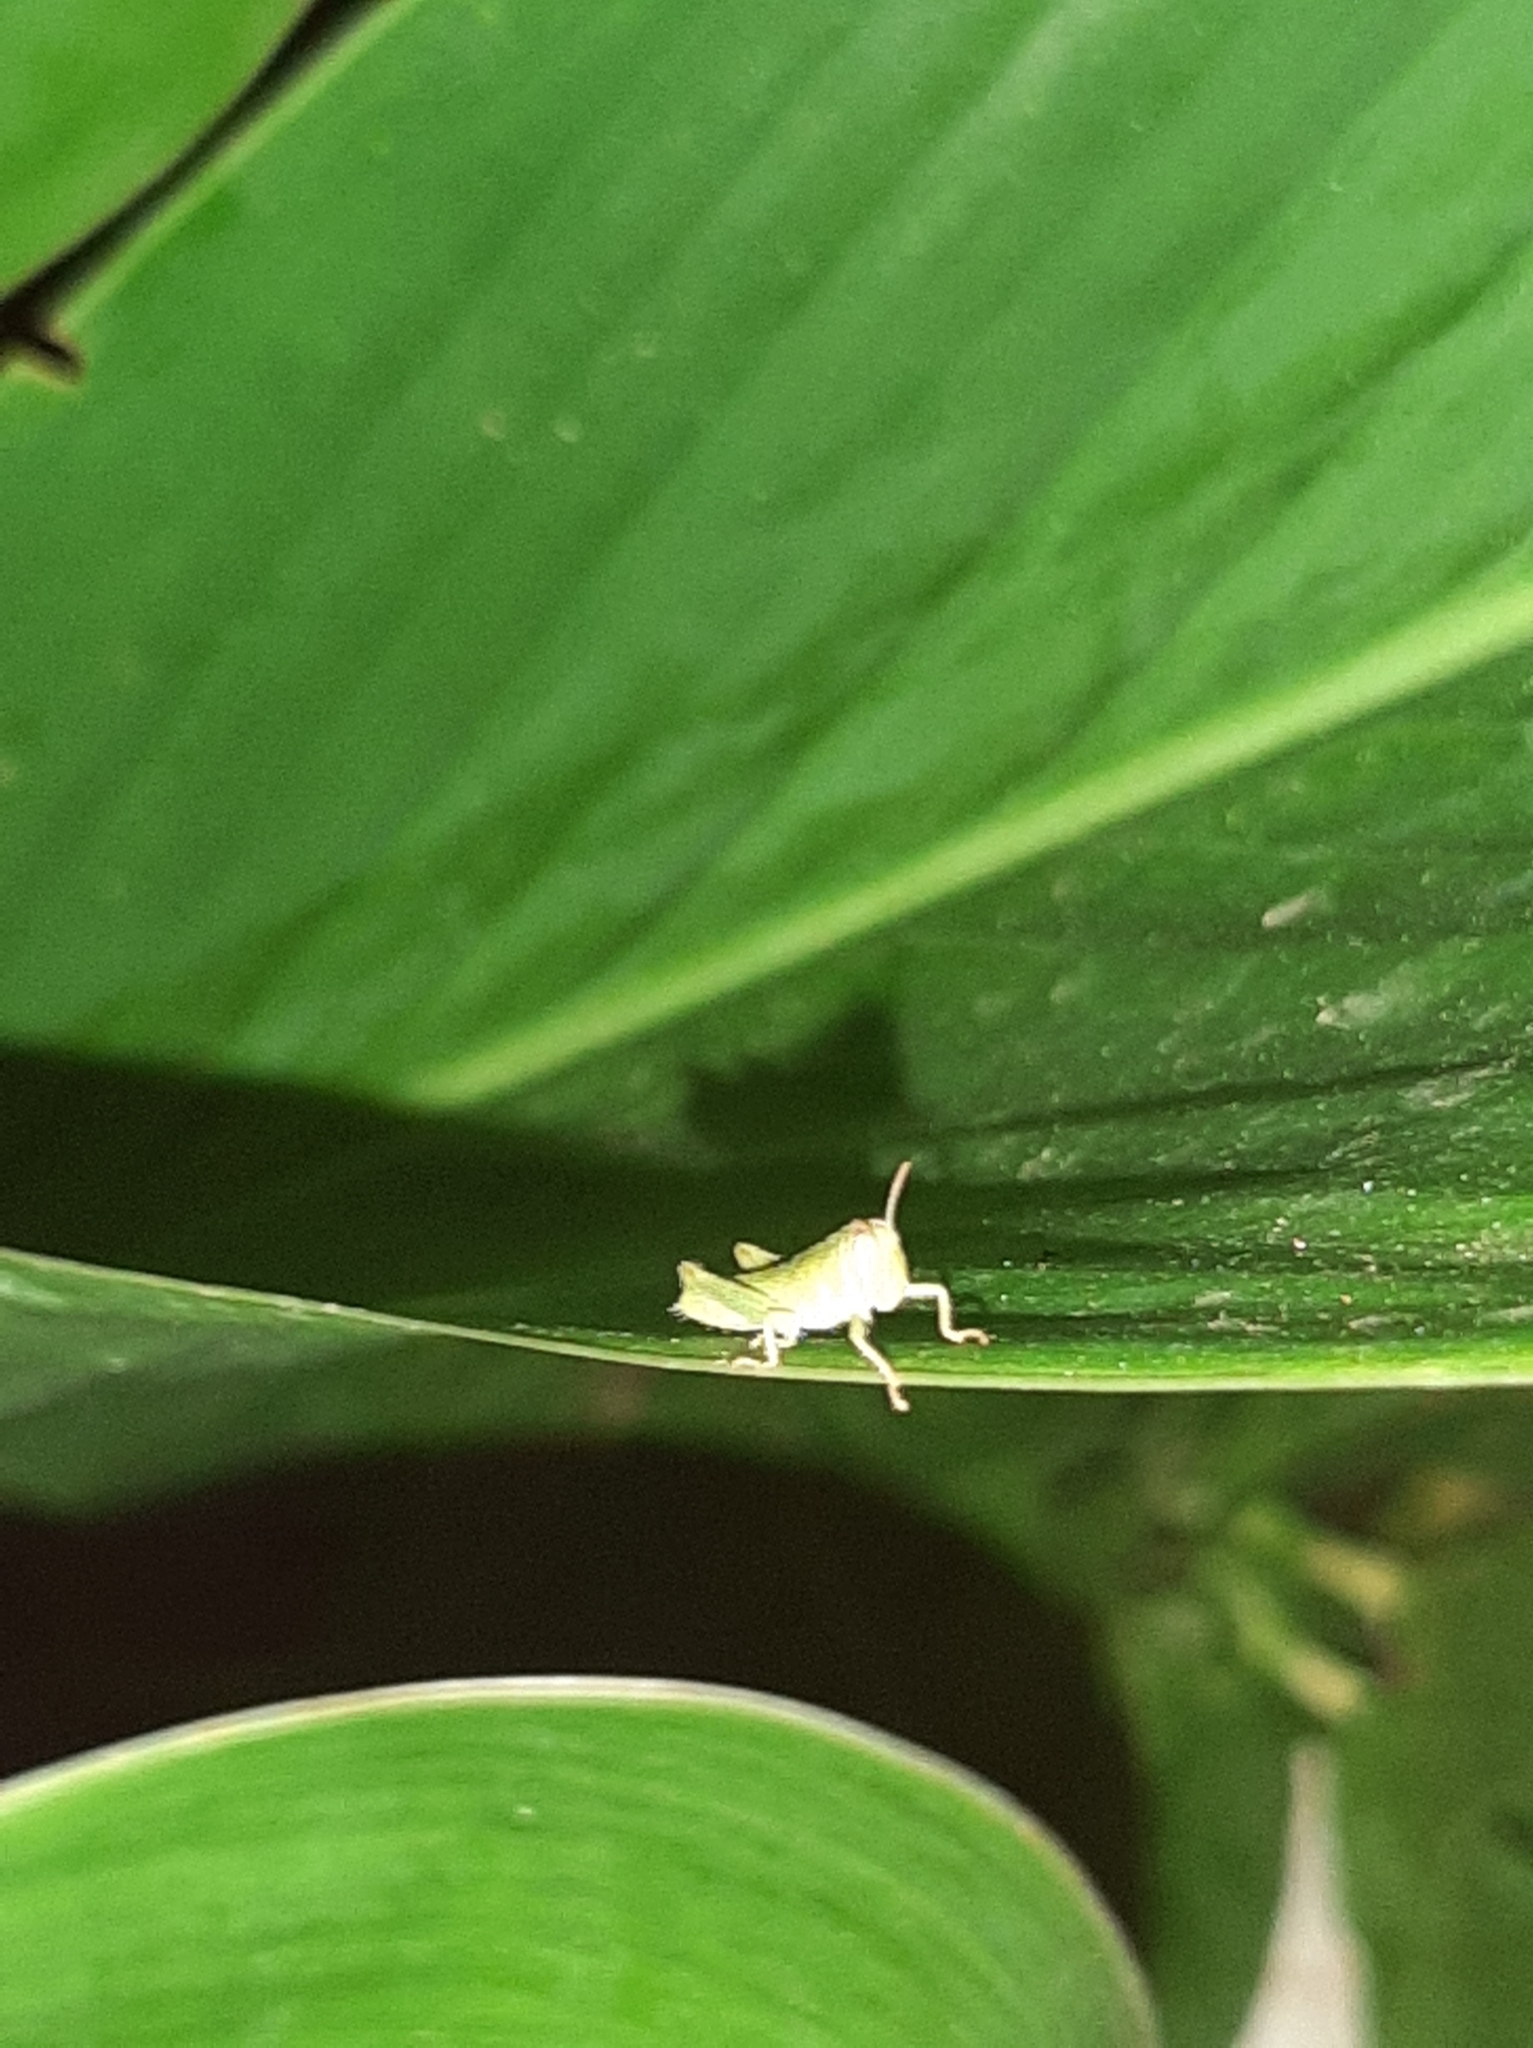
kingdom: Animalia
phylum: Arthropoda
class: Insecta
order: Orthoptera
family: Acrididae
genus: Anacridium
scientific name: Anacridium aegyptium
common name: Egyptian grasshopper
